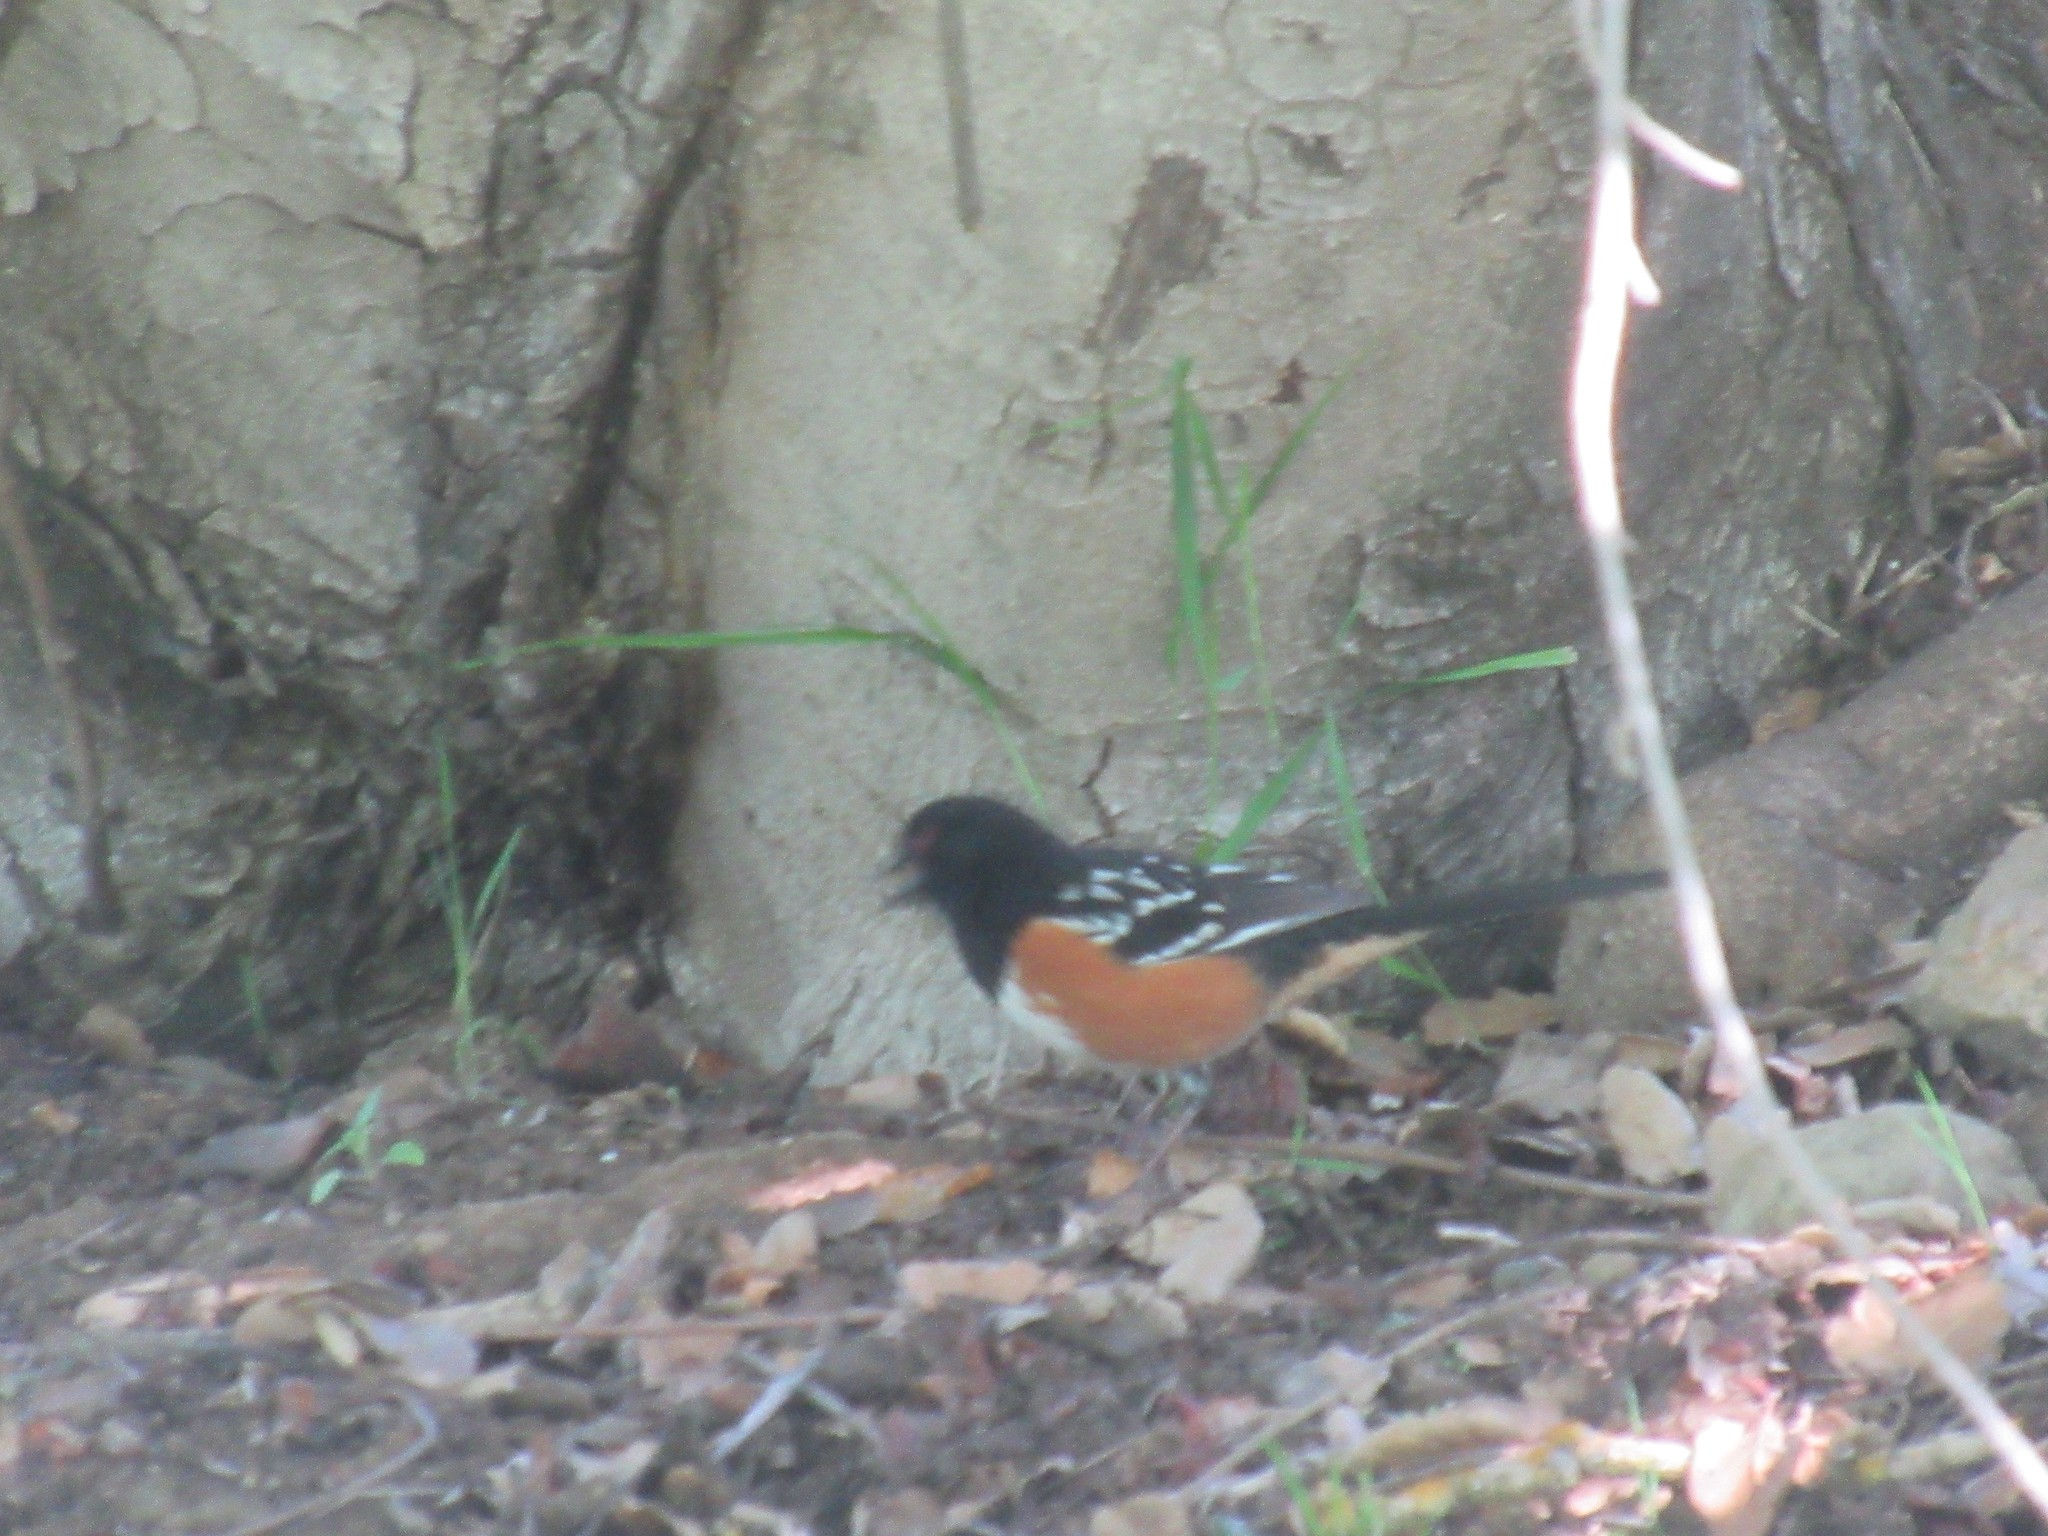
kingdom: Animalia
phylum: Chordata
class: Aves
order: Passeriformes
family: Passerellidae
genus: Pipilo
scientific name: Pipilo maculatus
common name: Spotted towhee
